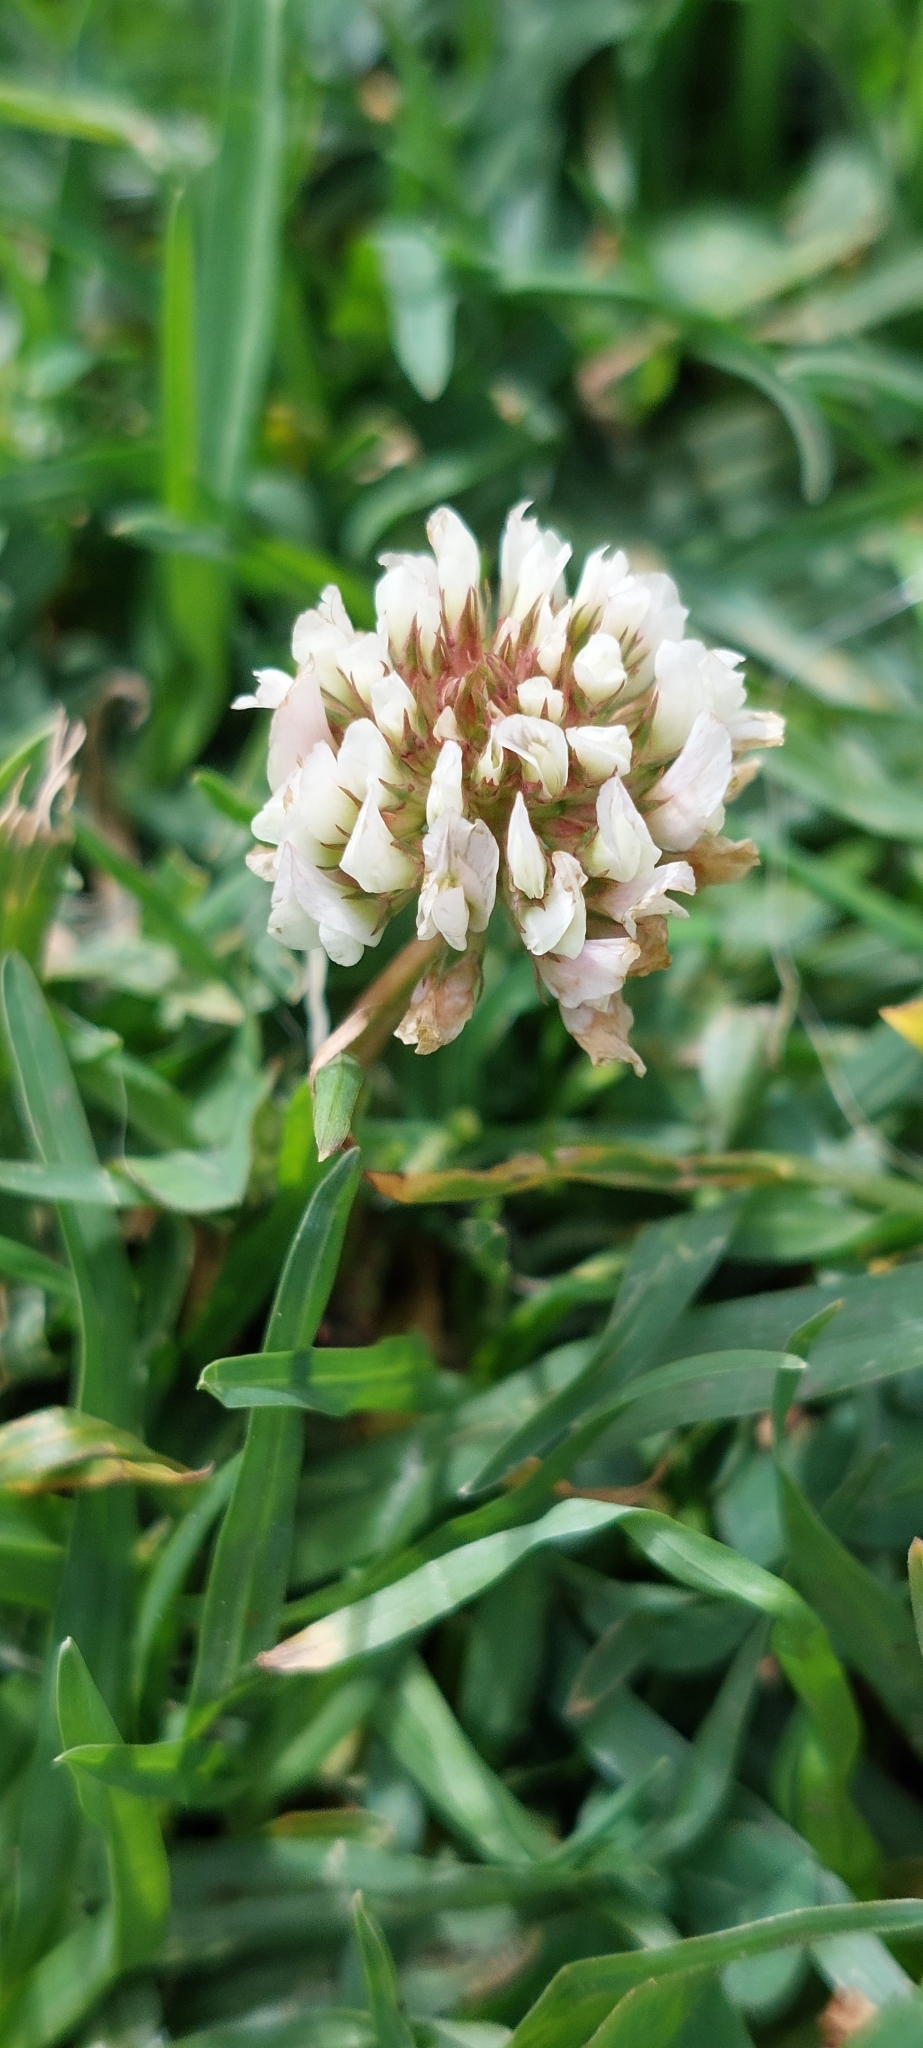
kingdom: Plantae
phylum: Tracheophyta
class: Magnoliopsida
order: Fabales
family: Fabaceae
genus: Trifolium
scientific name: Trifolium repens
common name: White clover
